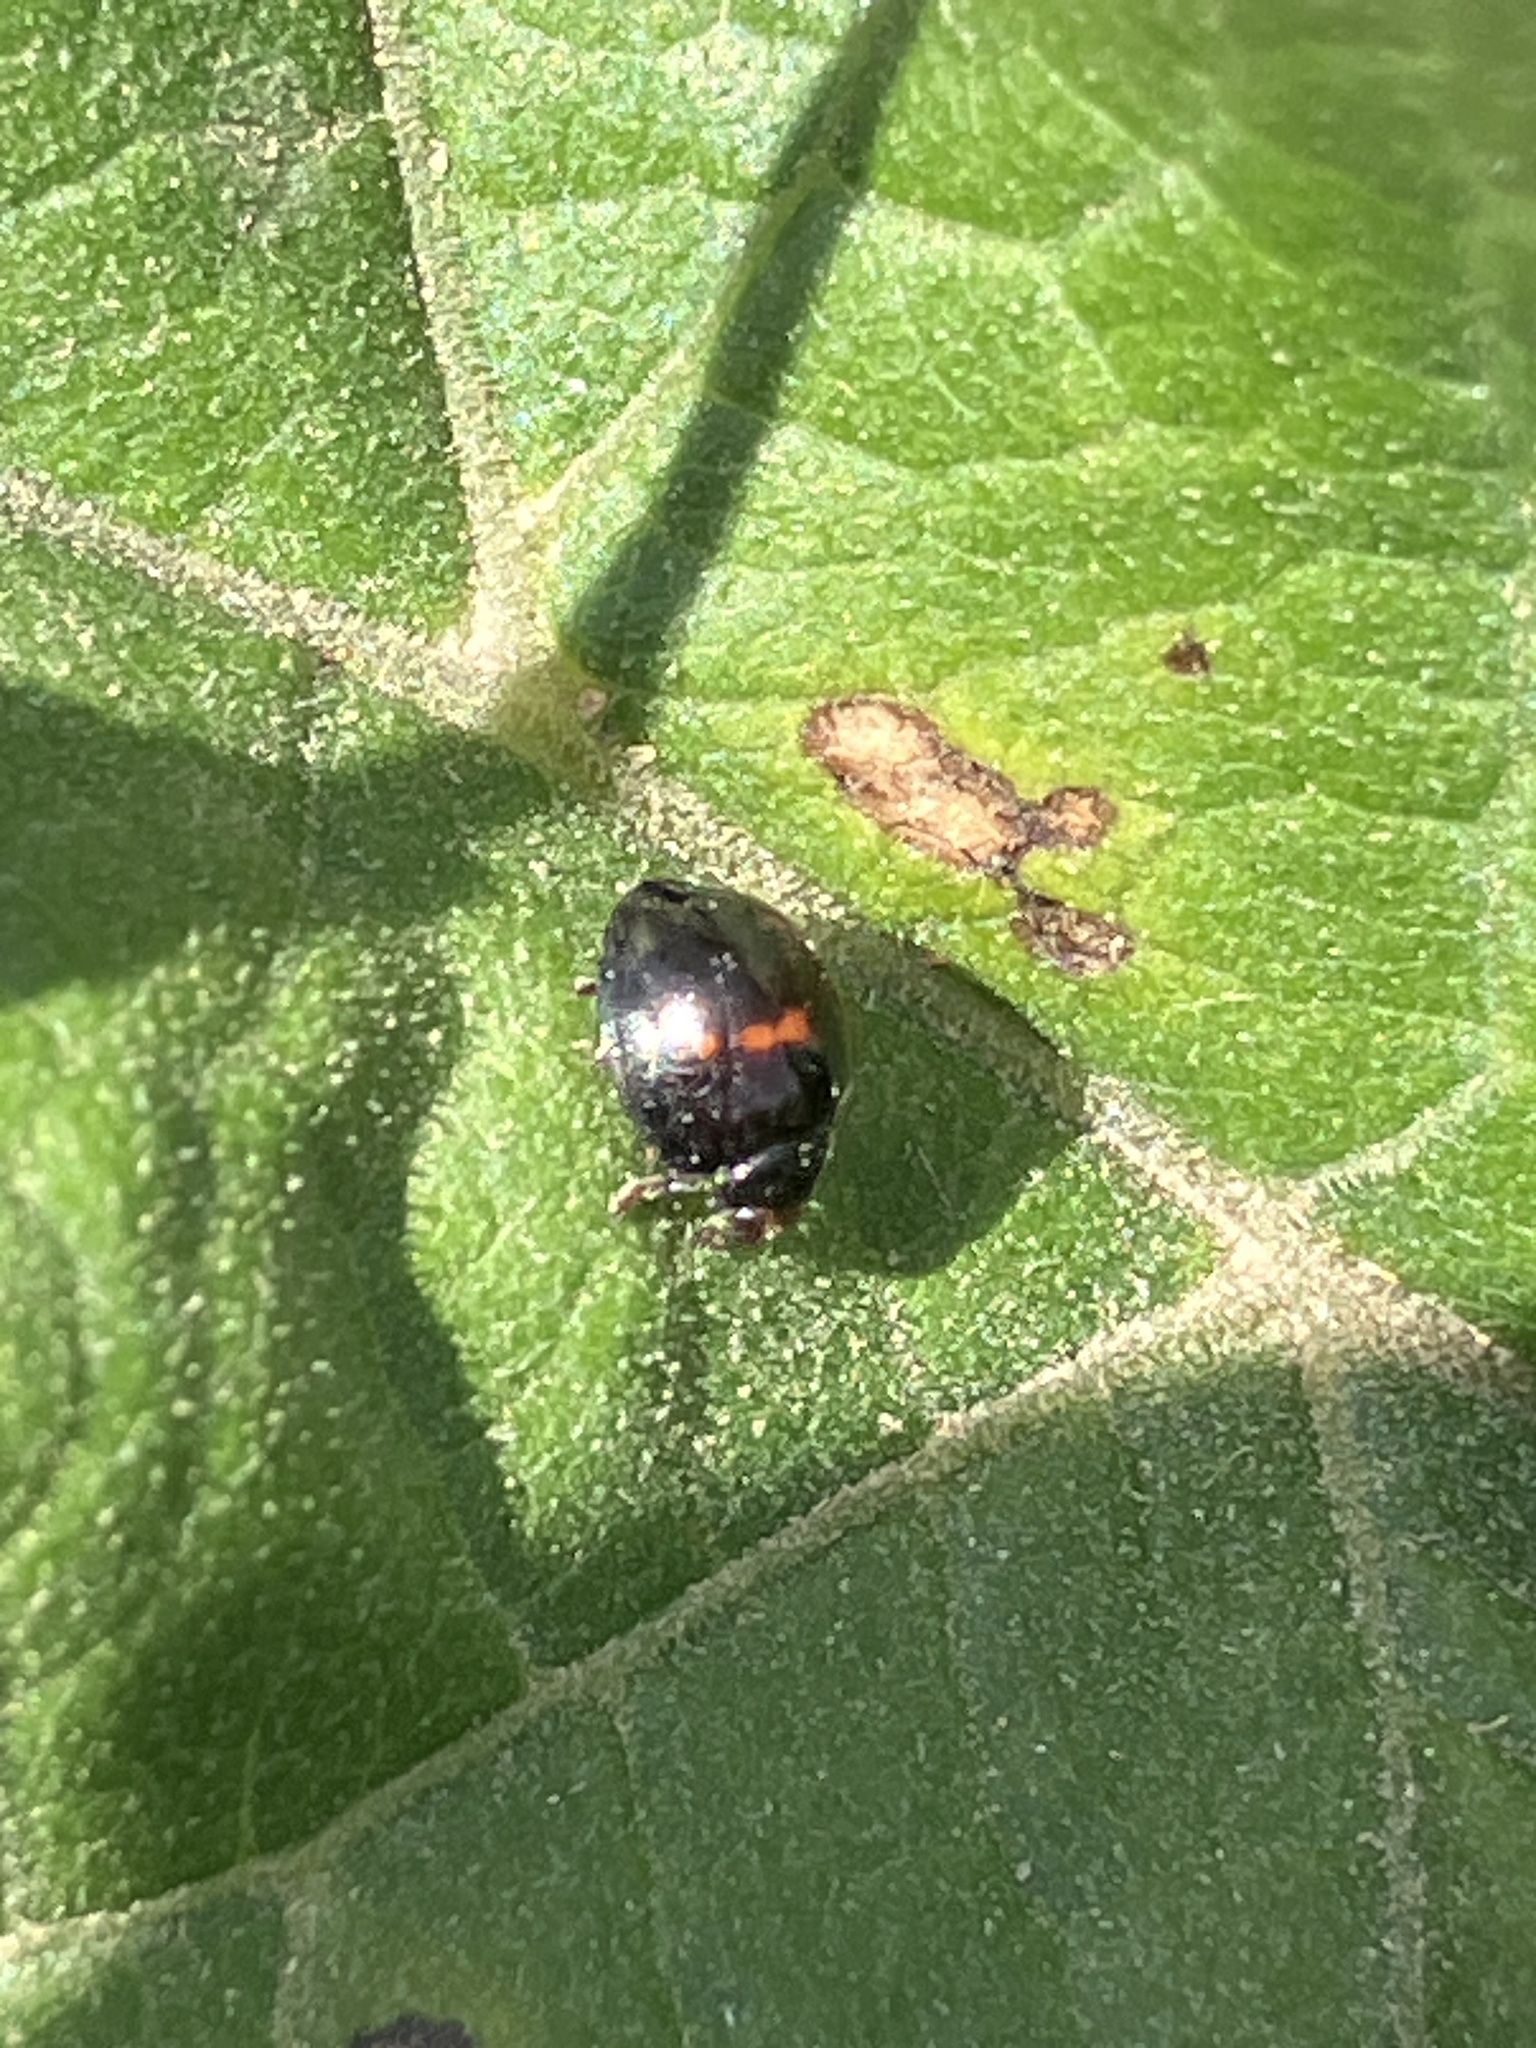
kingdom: Animalia
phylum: Arthropoda
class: Insecta
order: Coleoptera
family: Coccinellidae
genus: Chilocorus
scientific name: Chilocorus bipustulatus
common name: Heather ladybird
